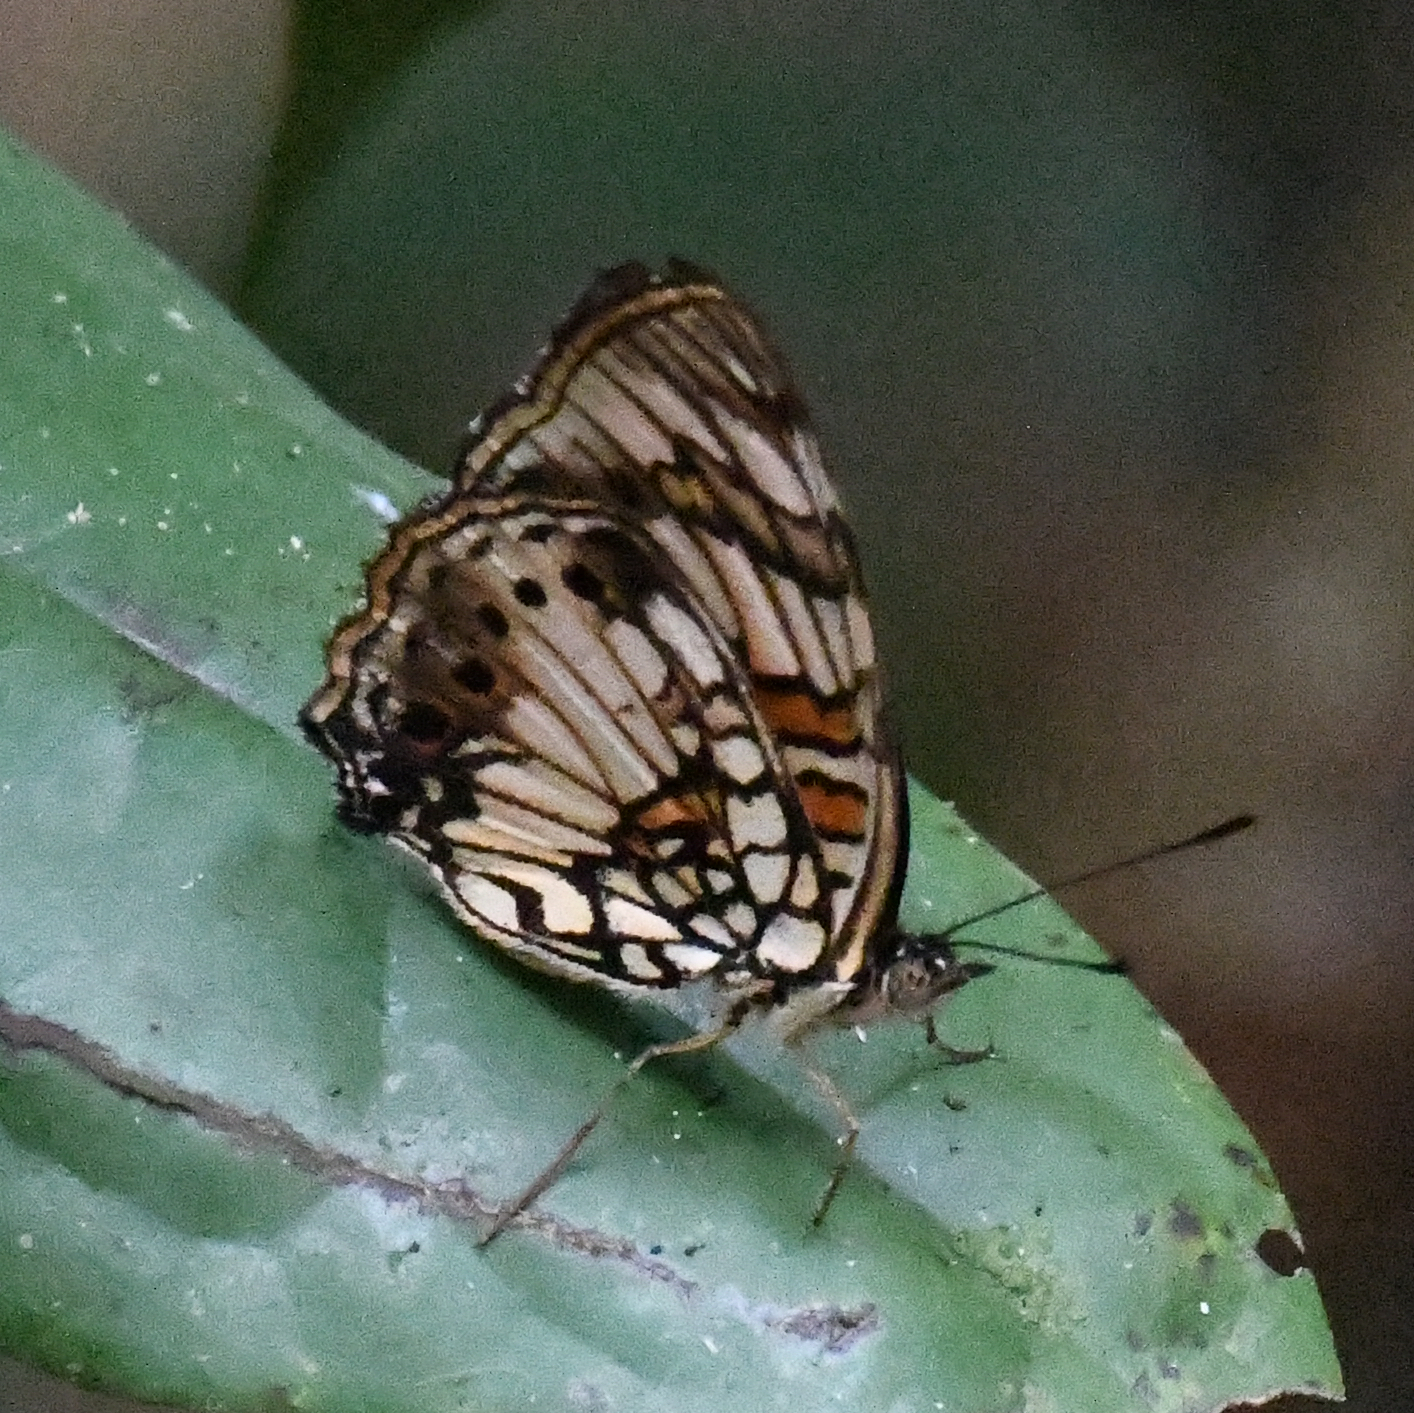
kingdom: Animalia
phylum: Arthropoda
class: Insecta
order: Lepidoptera
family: Nymphalidae
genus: Junonia
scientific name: Junonia sophia
